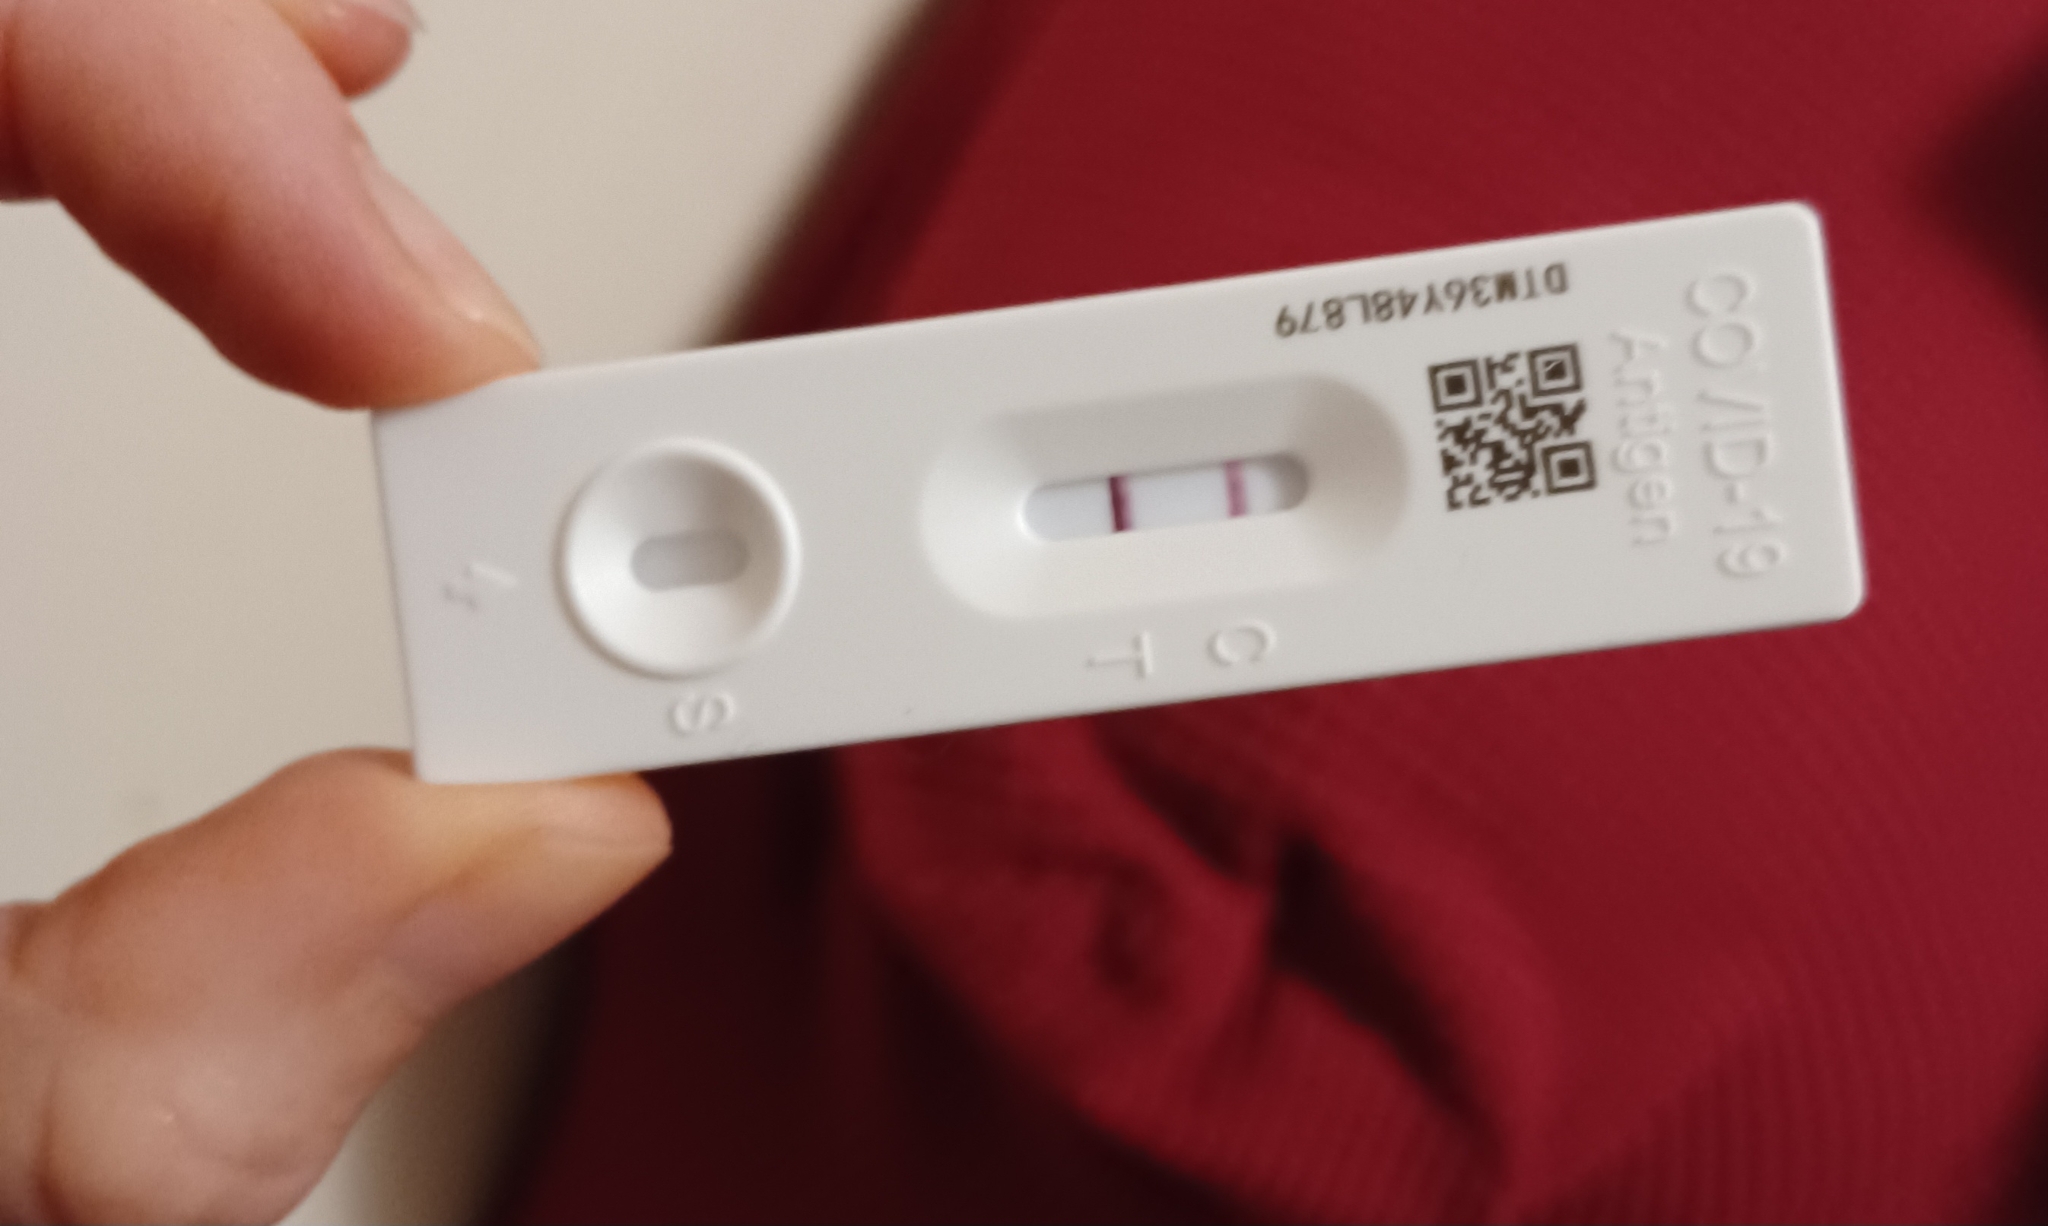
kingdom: Viruses
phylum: Pisuviricota
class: Pisoniviricetes
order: Nidovirales
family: Coronaviridae
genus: Betacoronavirus
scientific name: Betacoronavirus
